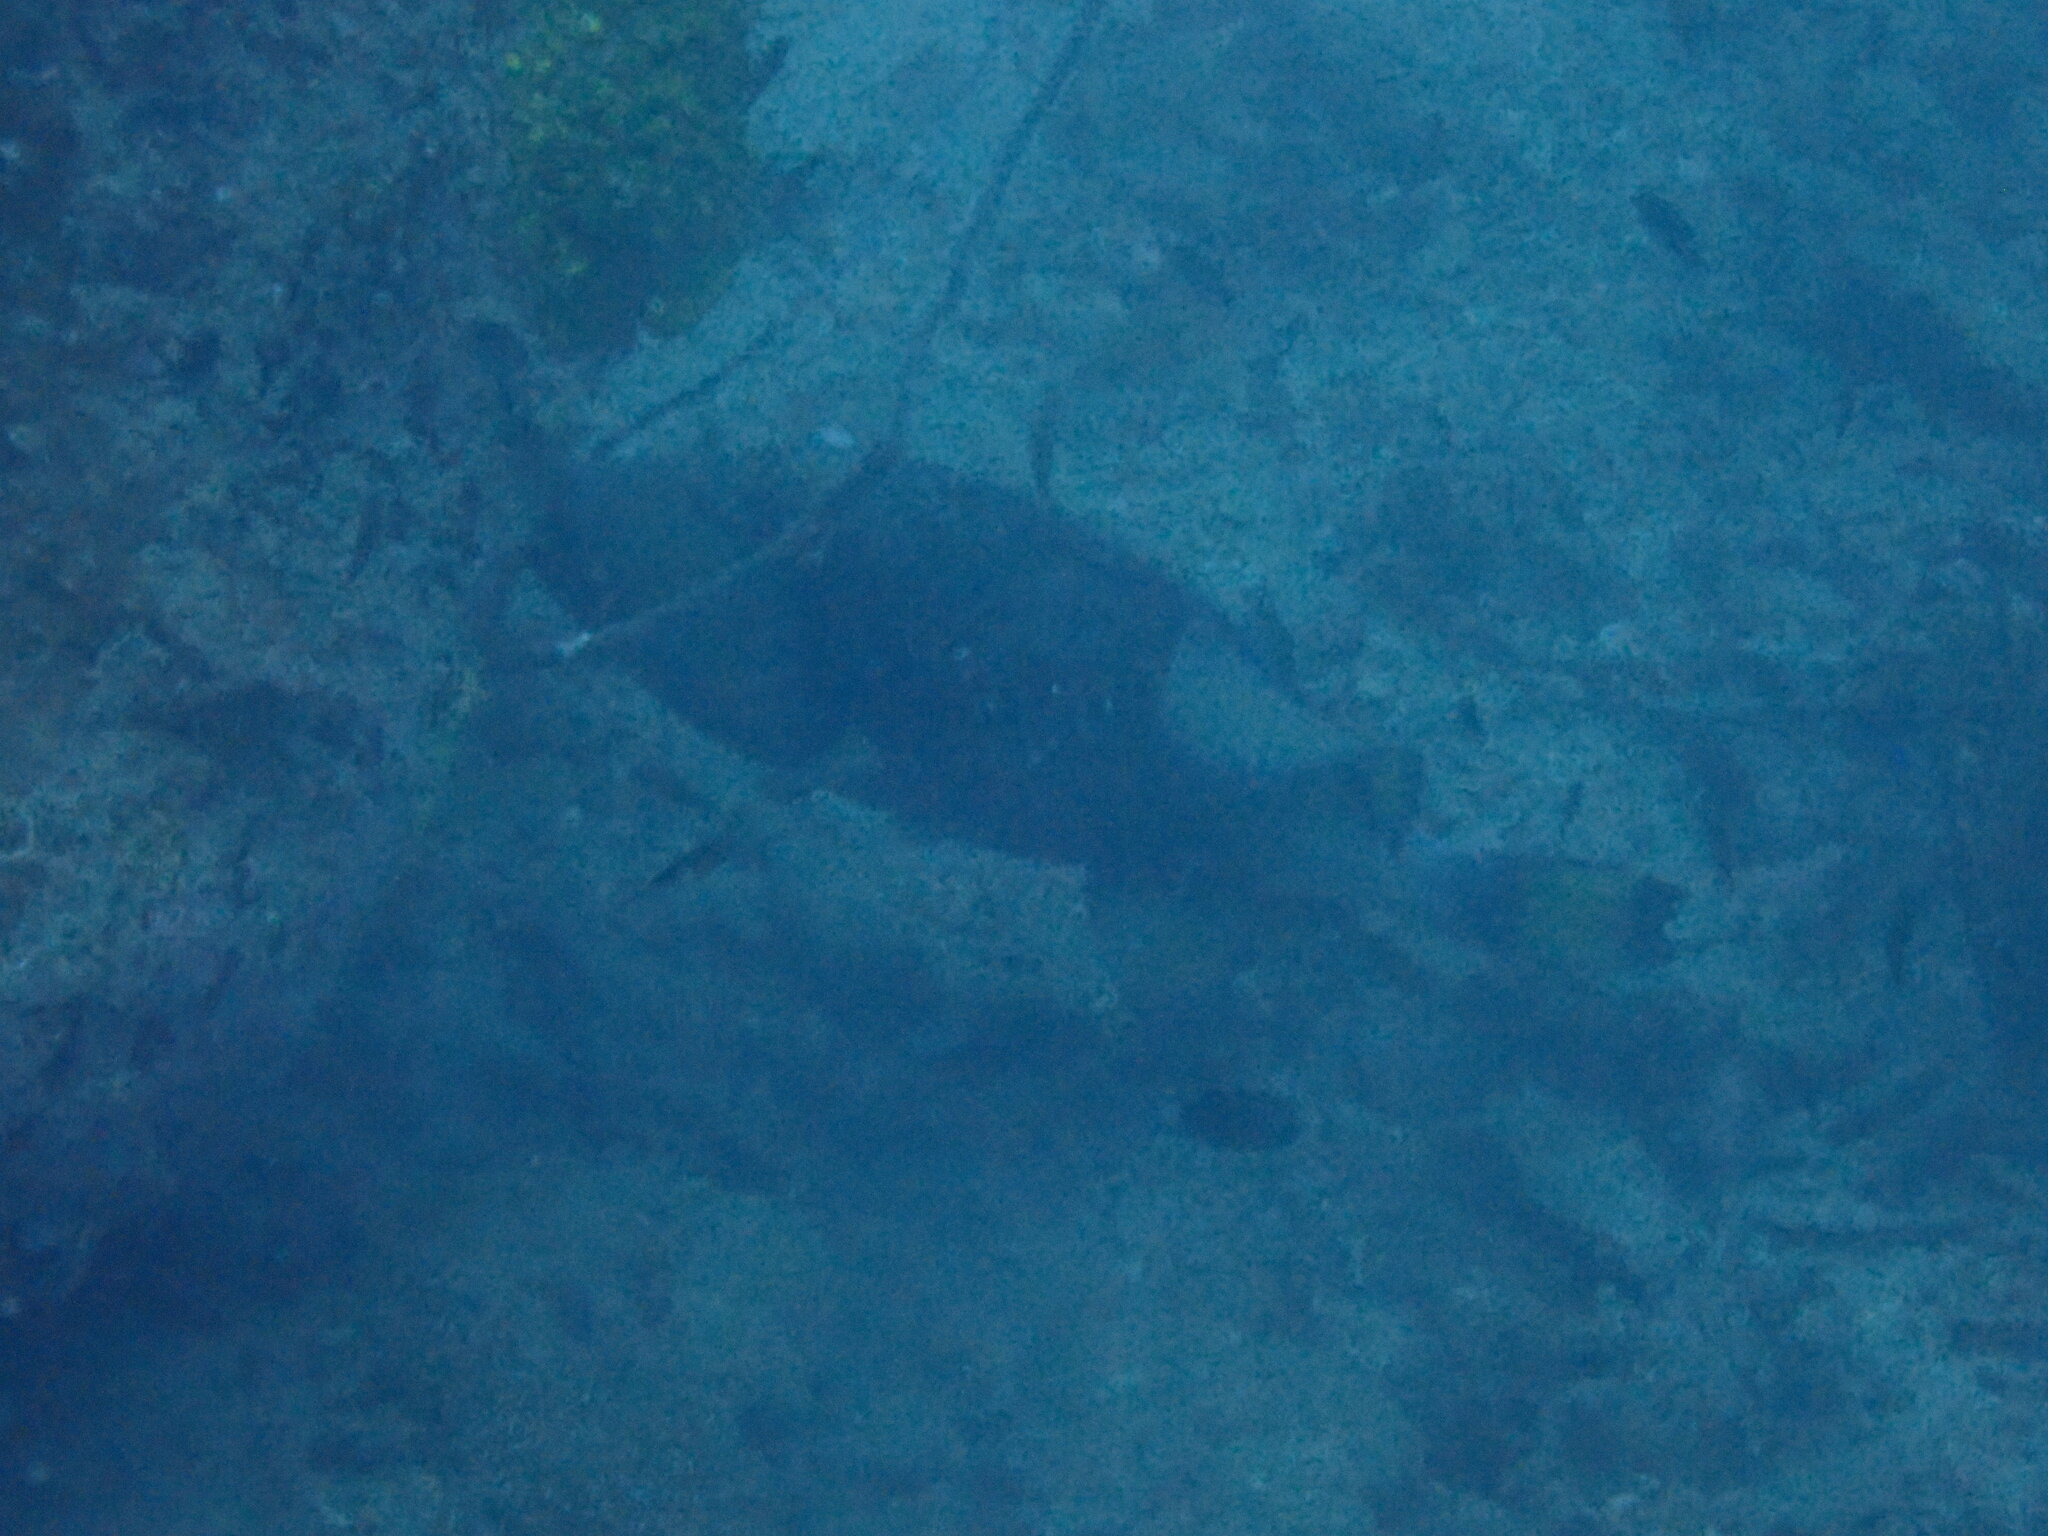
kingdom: Animalia
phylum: Chordata
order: Tetraodontiformes
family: Balistidae
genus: Balistoides
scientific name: Balistoides viridescens
